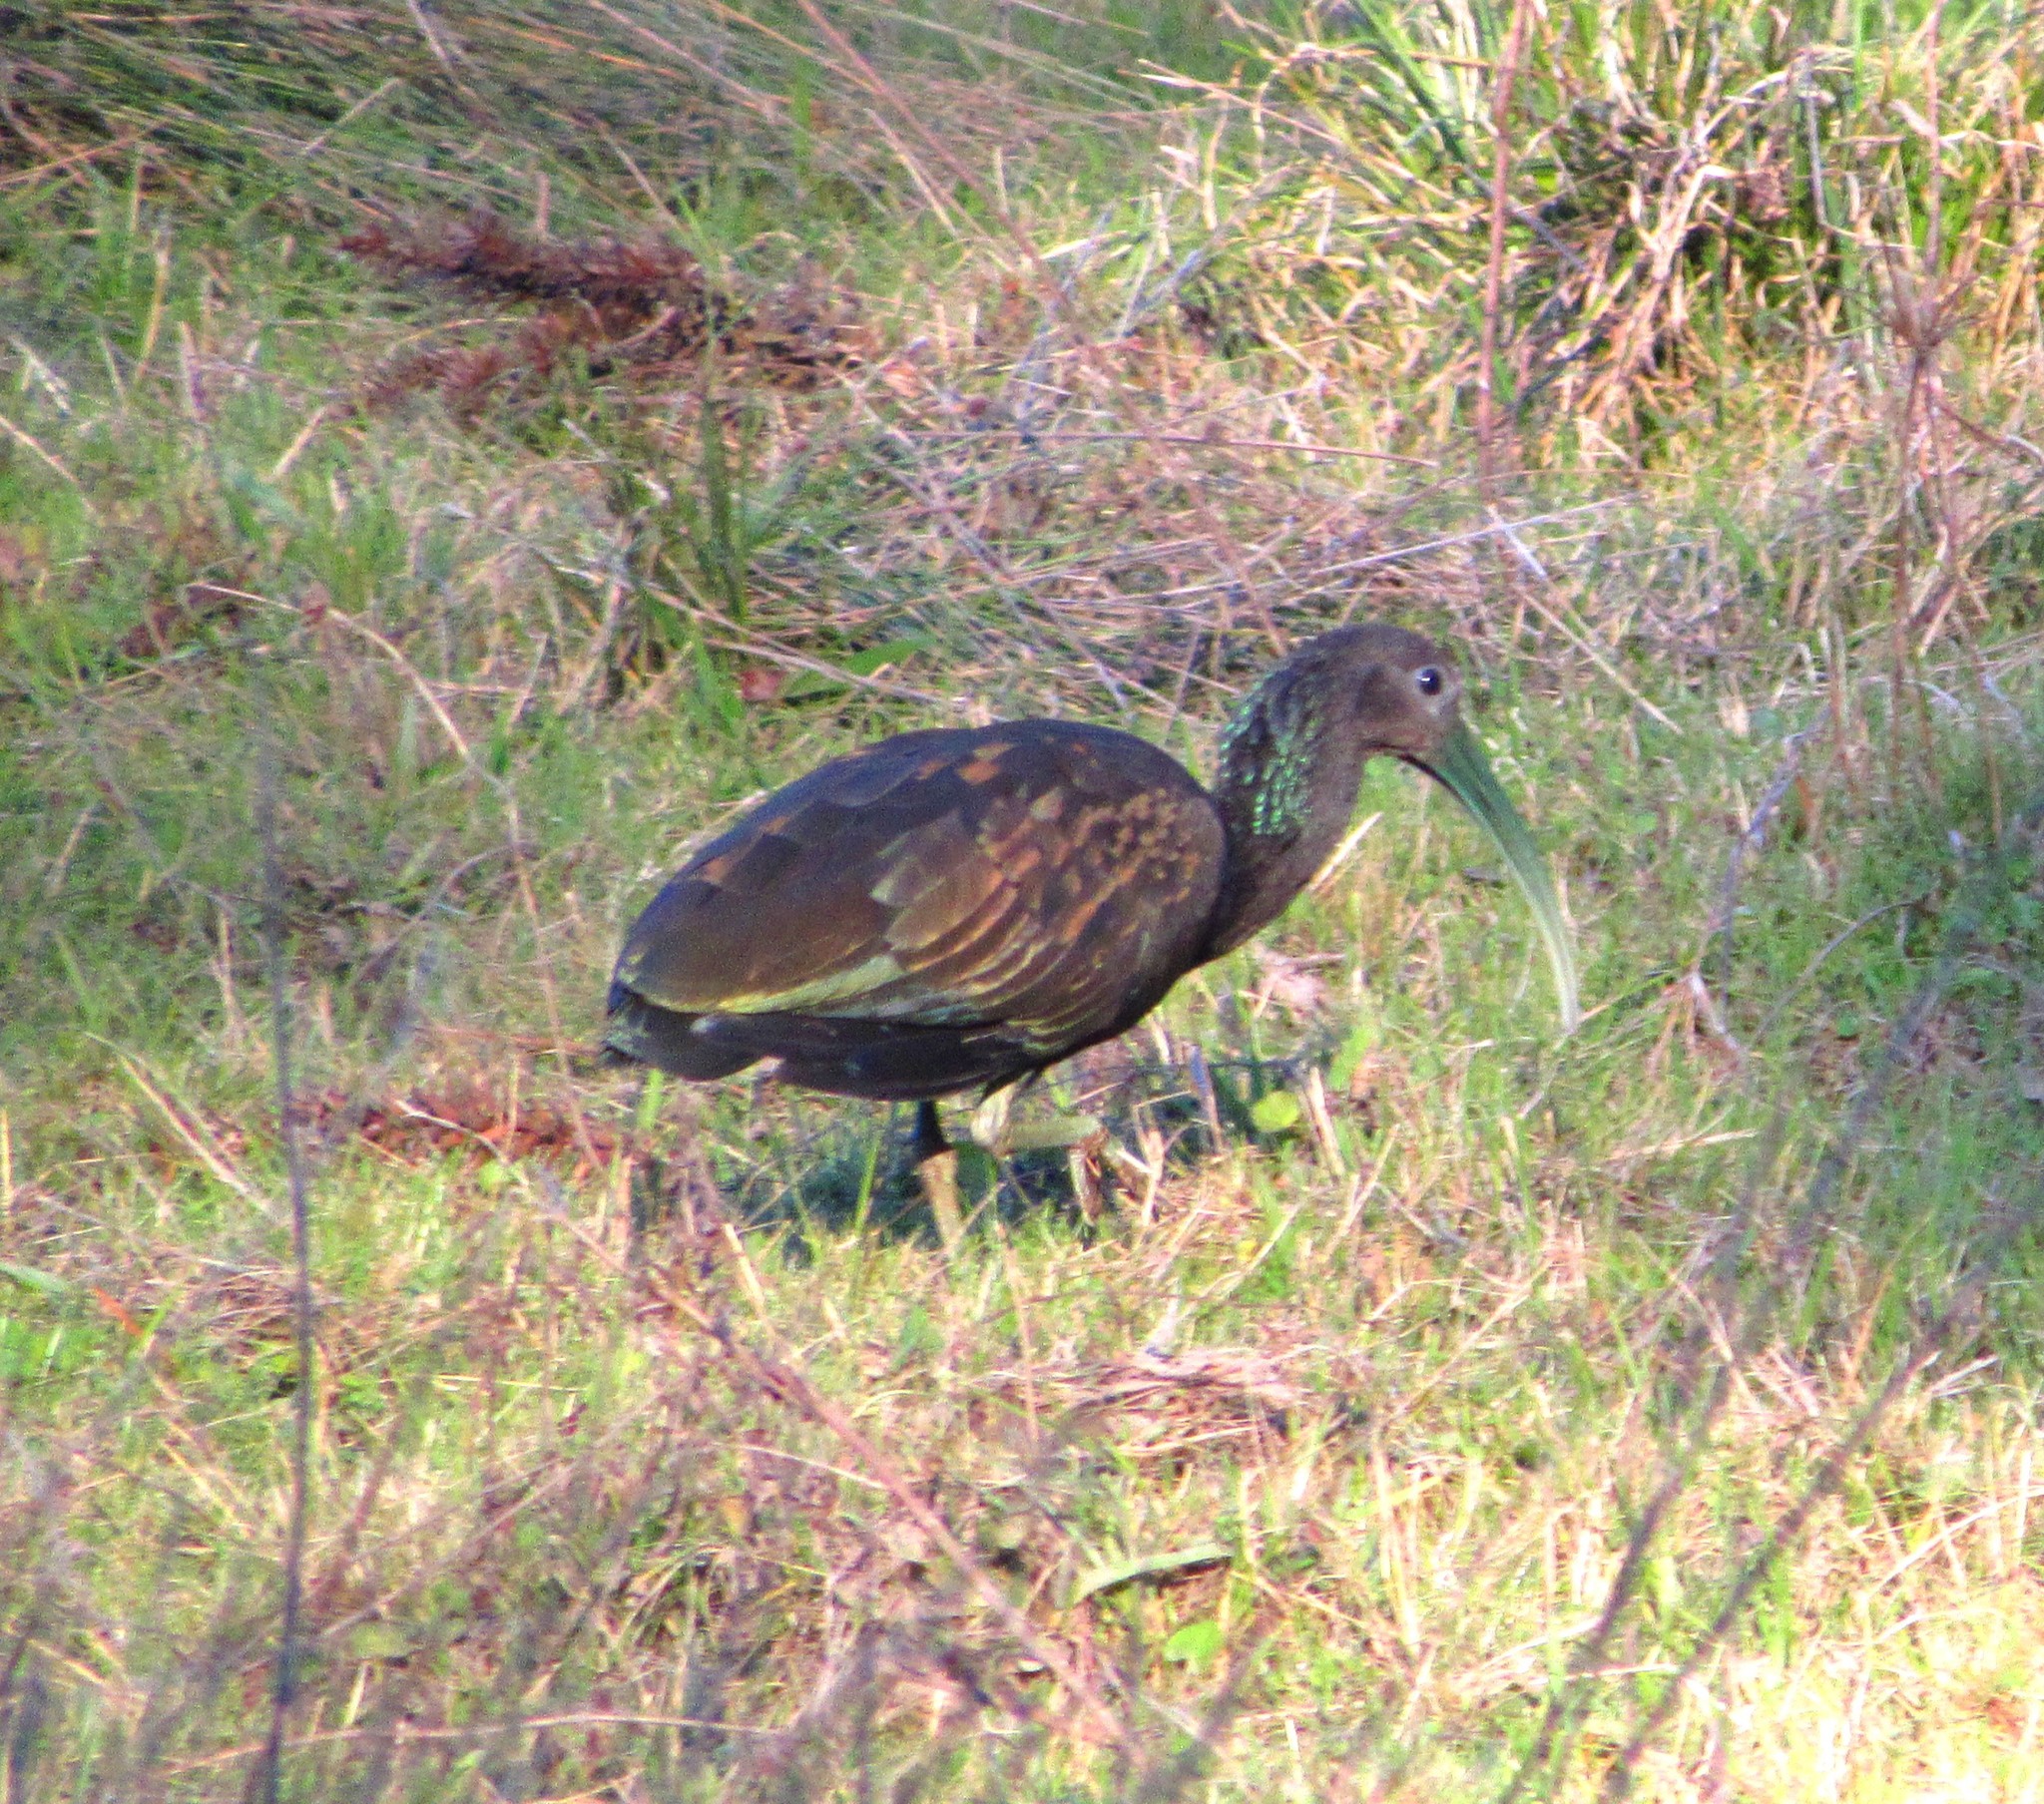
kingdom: Animalia
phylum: Chordata
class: Aves
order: Pelecaniformes
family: Threskiornithidae
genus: Mesembrinibis
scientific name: Mesembrinibis cayennensis
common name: Green ibis
